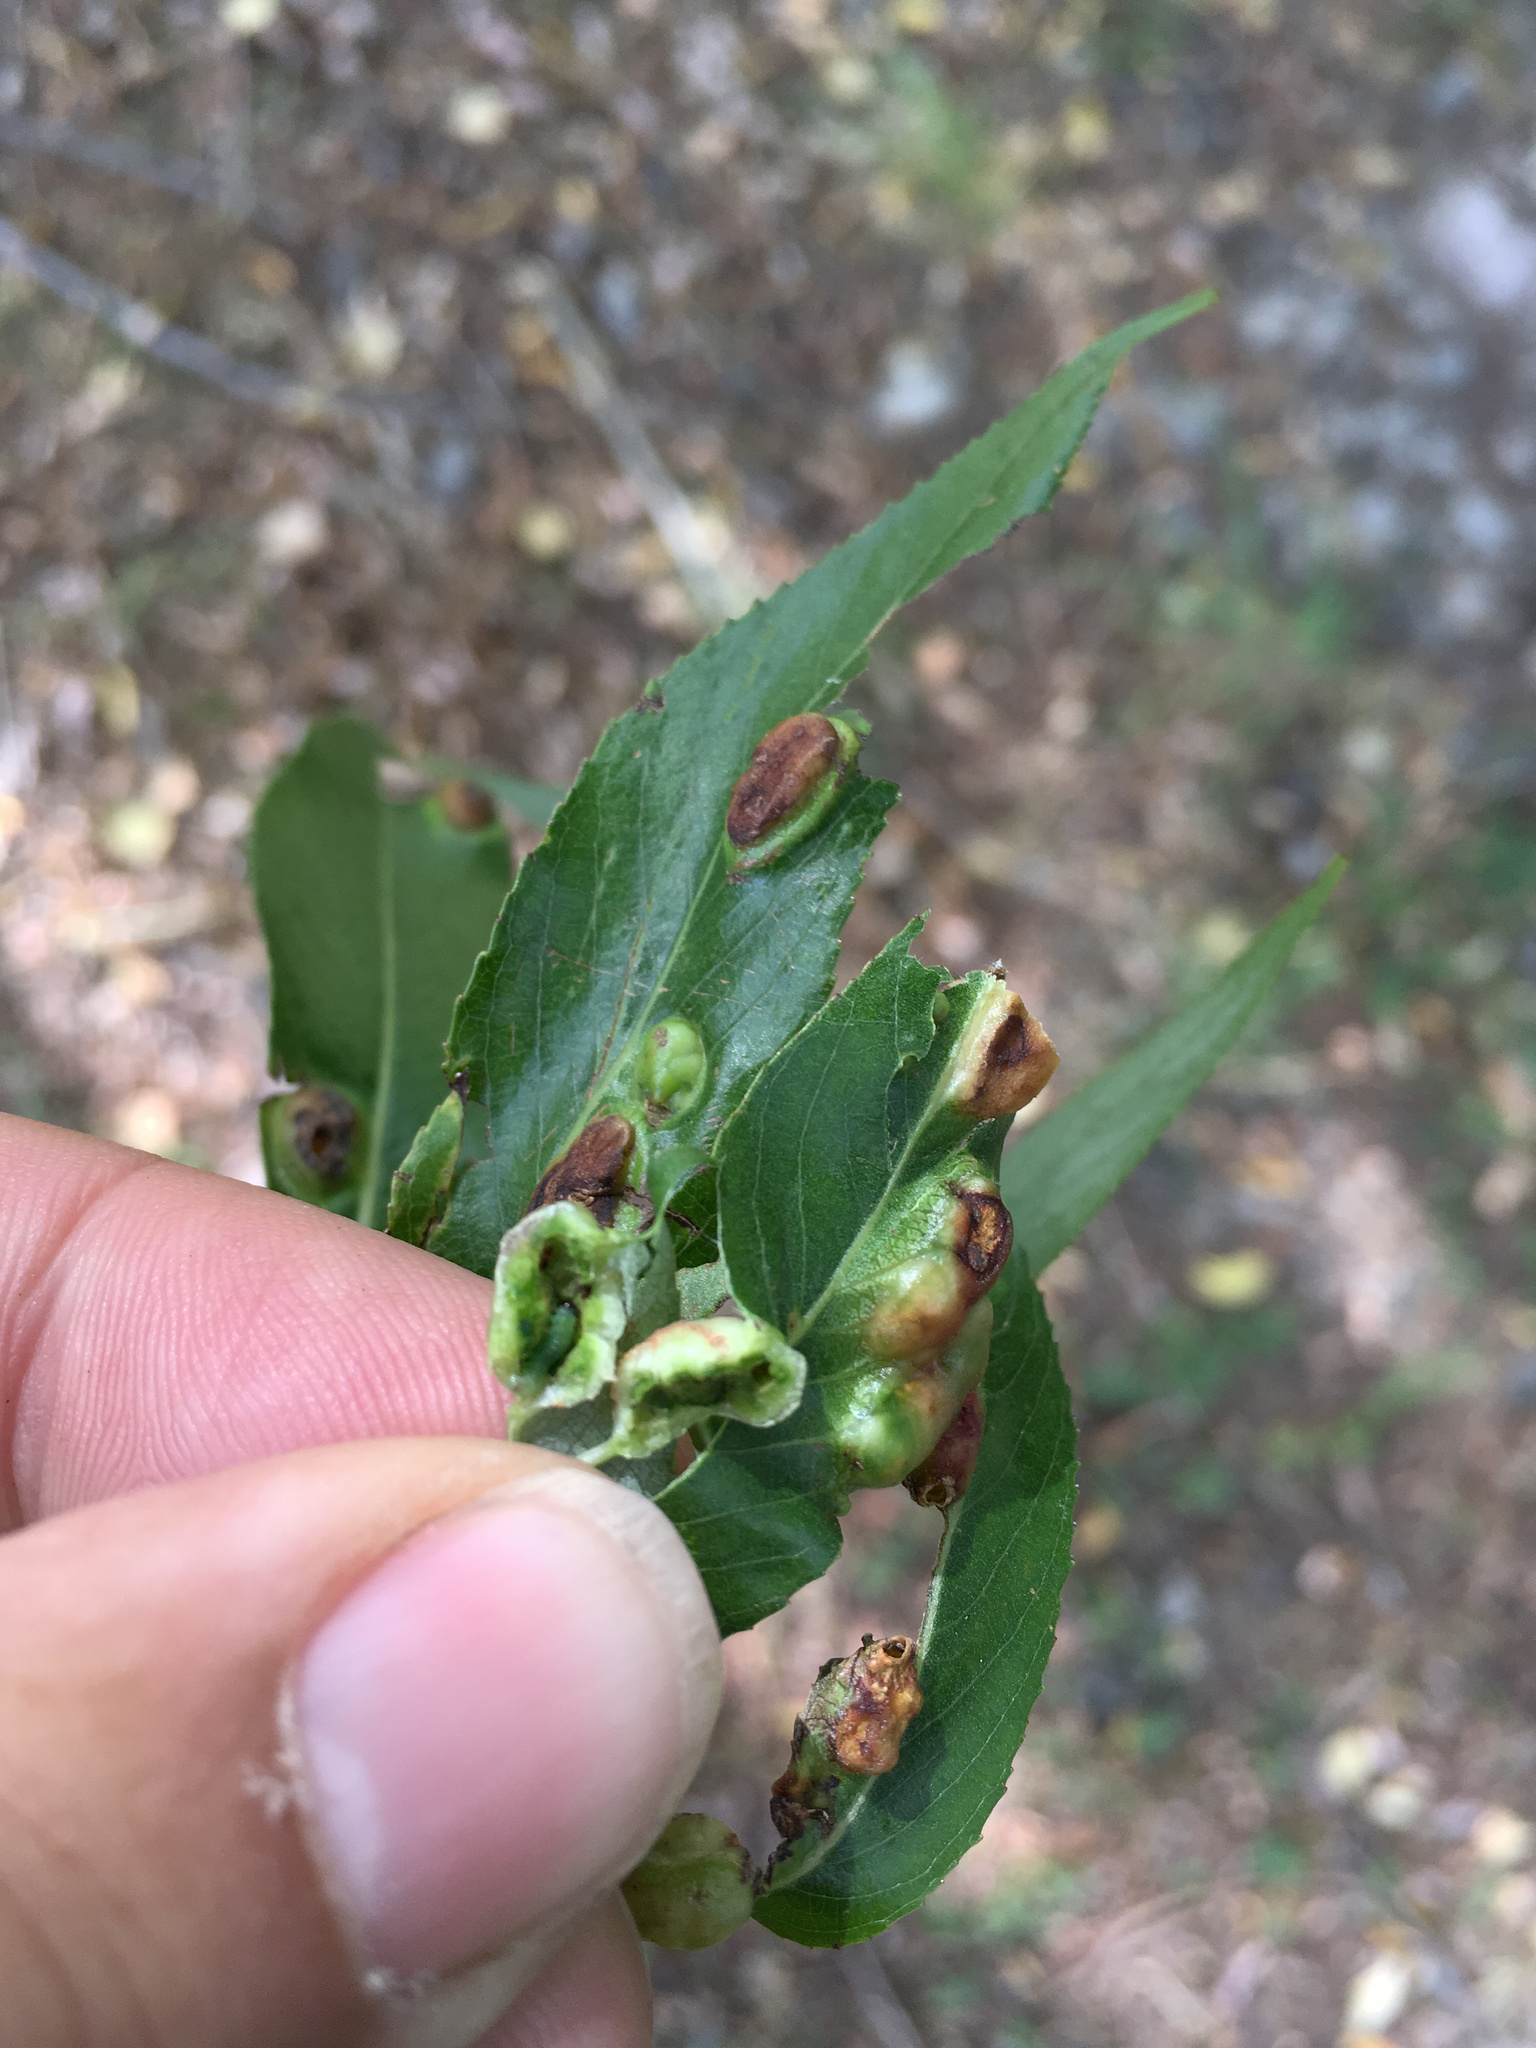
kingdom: Animalia
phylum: Arthropoda
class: Insecta
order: Hymenoptera
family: Tenthredinidae
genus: Pontania
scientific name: Pontania proxima
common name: Common sawfly
